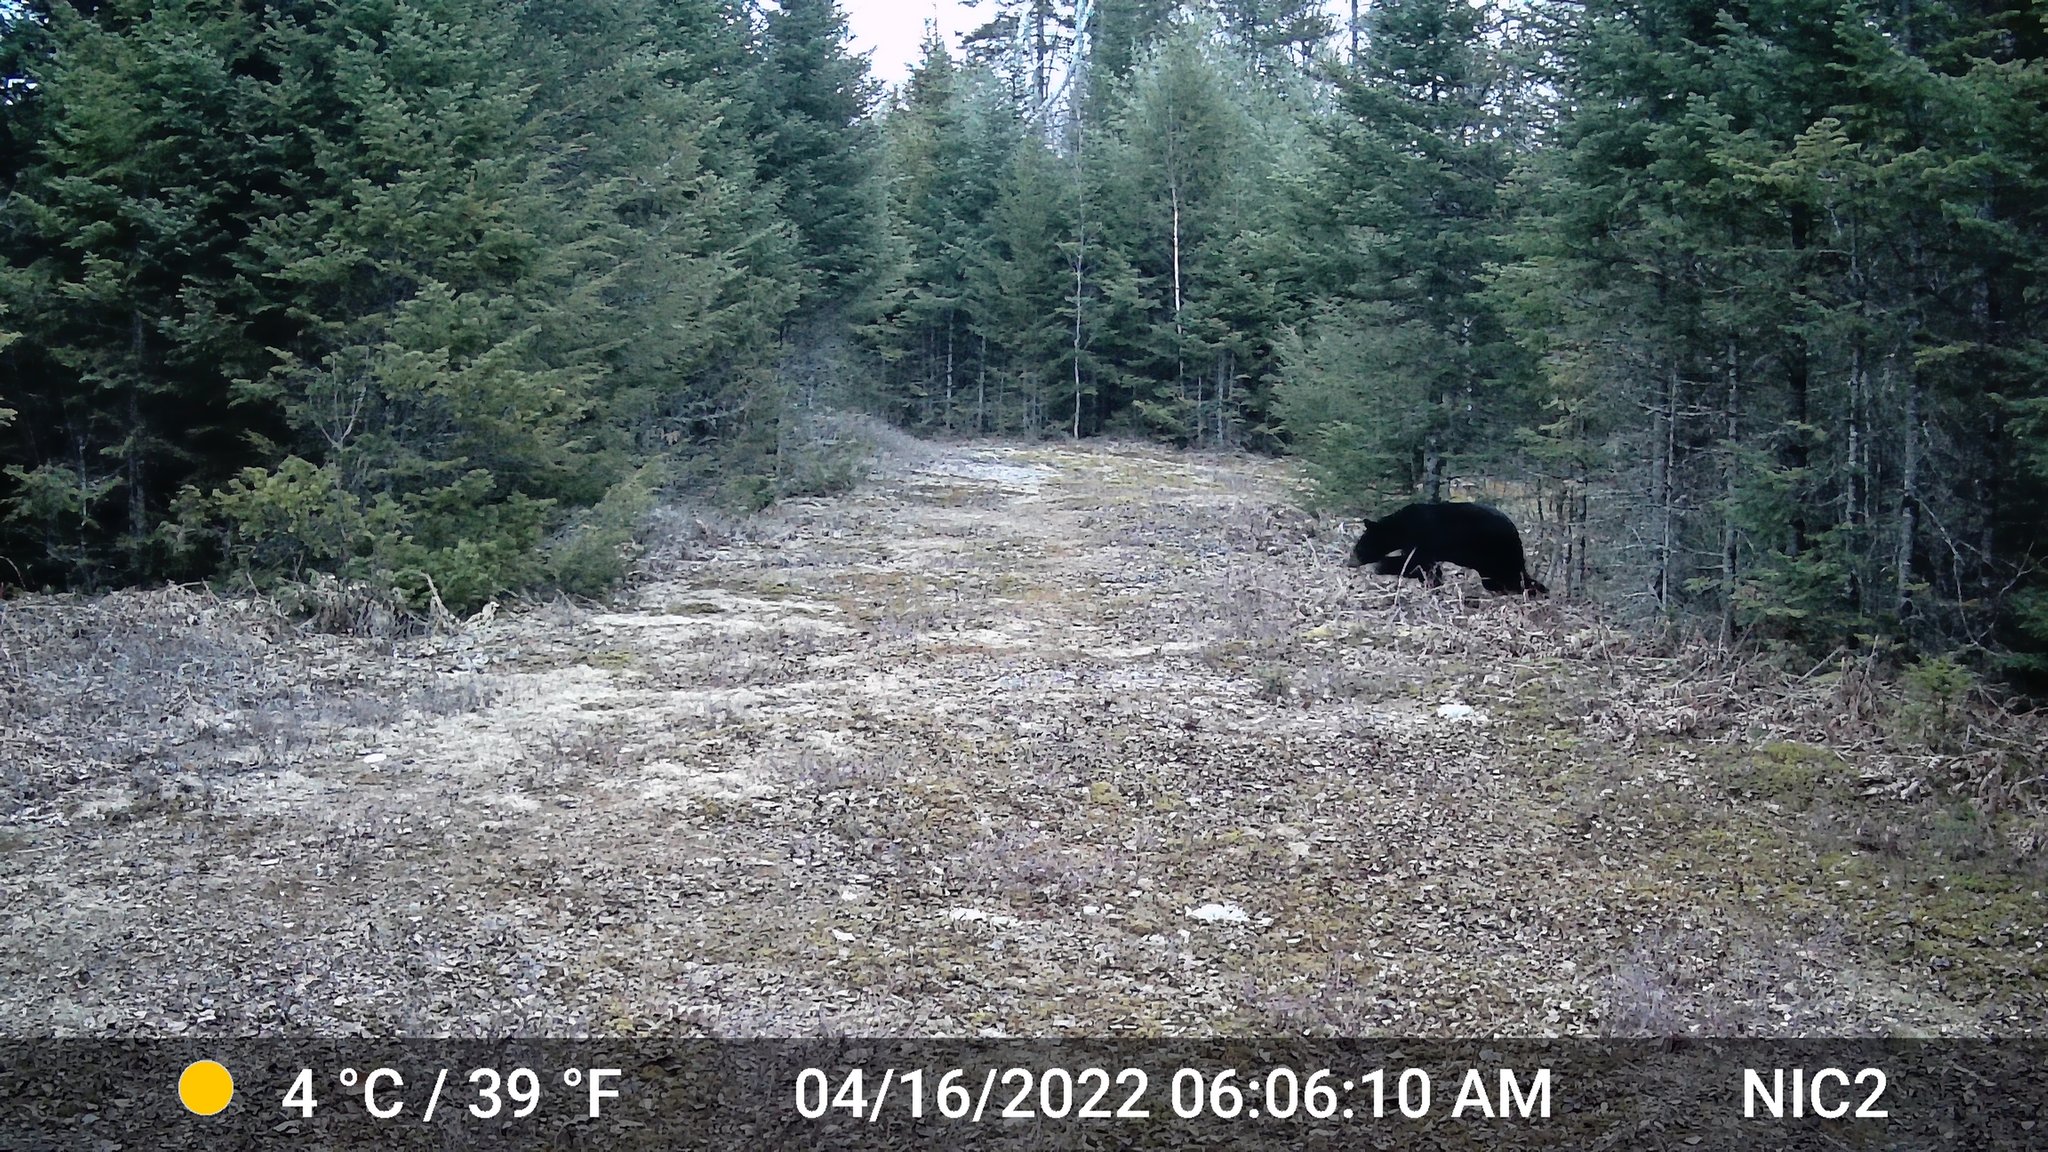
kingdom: Animalia
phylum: Chordata
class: Mammalia
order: Carnivora
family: Ursidae
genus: Ursus
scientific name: Ursus americanus
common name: American black bear
